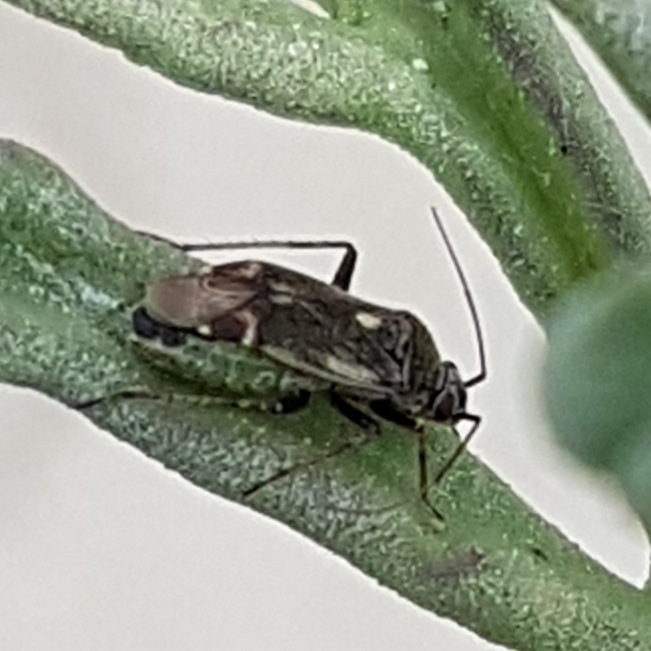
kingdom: Animalia
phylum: Arthropoda
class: Insecta
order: Hemiptera
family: Miridae
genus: Polymerus
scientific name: Polymerus cognatus
